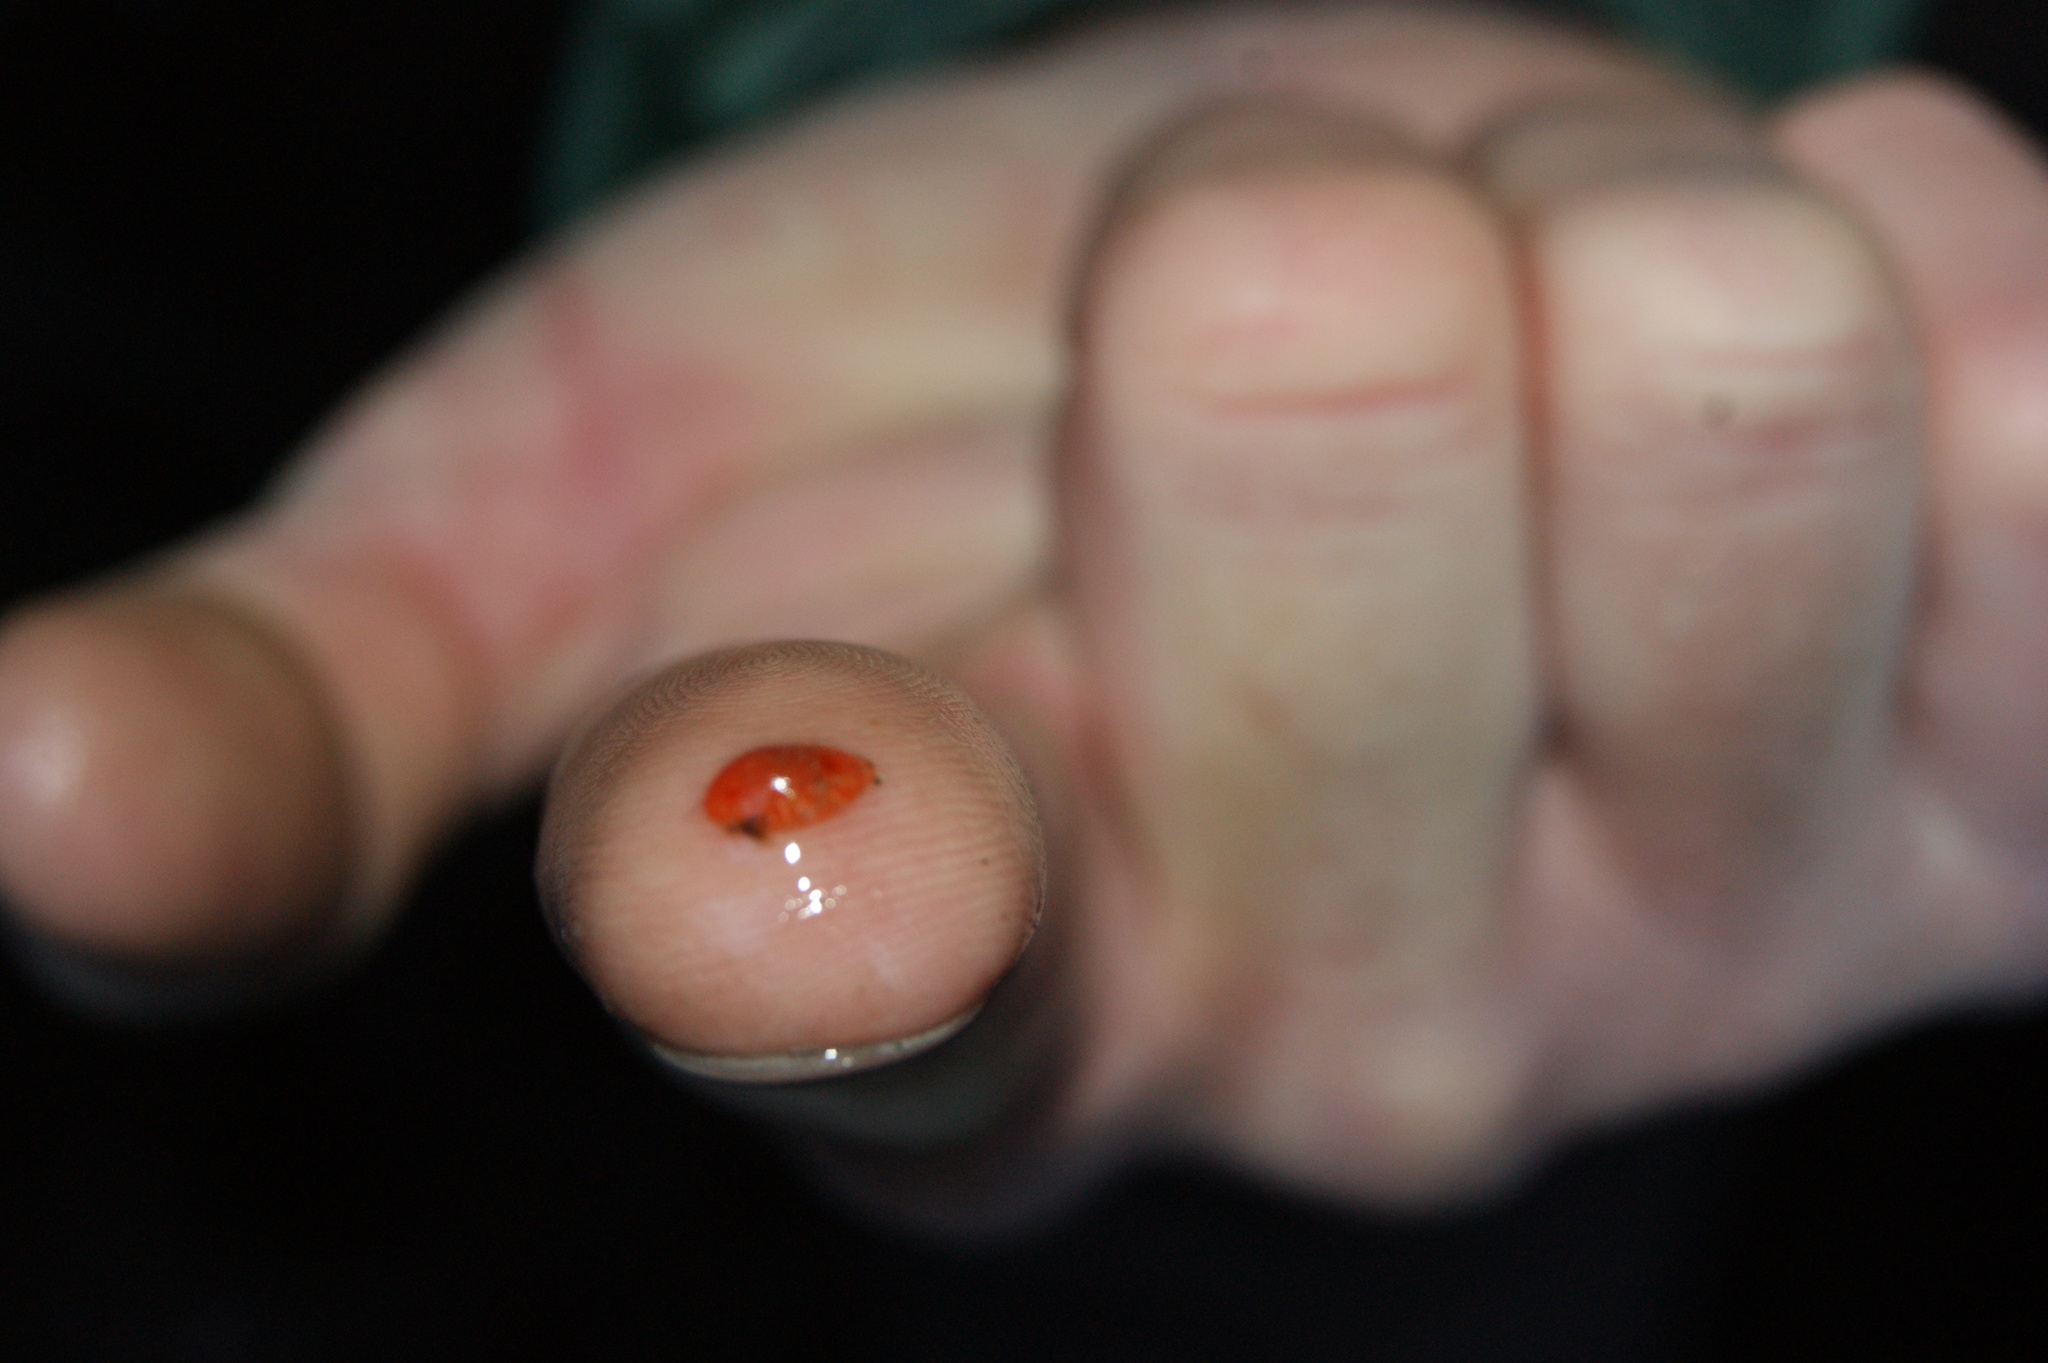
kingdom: Animalia
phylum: Mollusca
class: Gastropoda
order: Nudibranchia
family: Discodorididae
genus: Rostanga
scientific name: Rostanga pulchra
